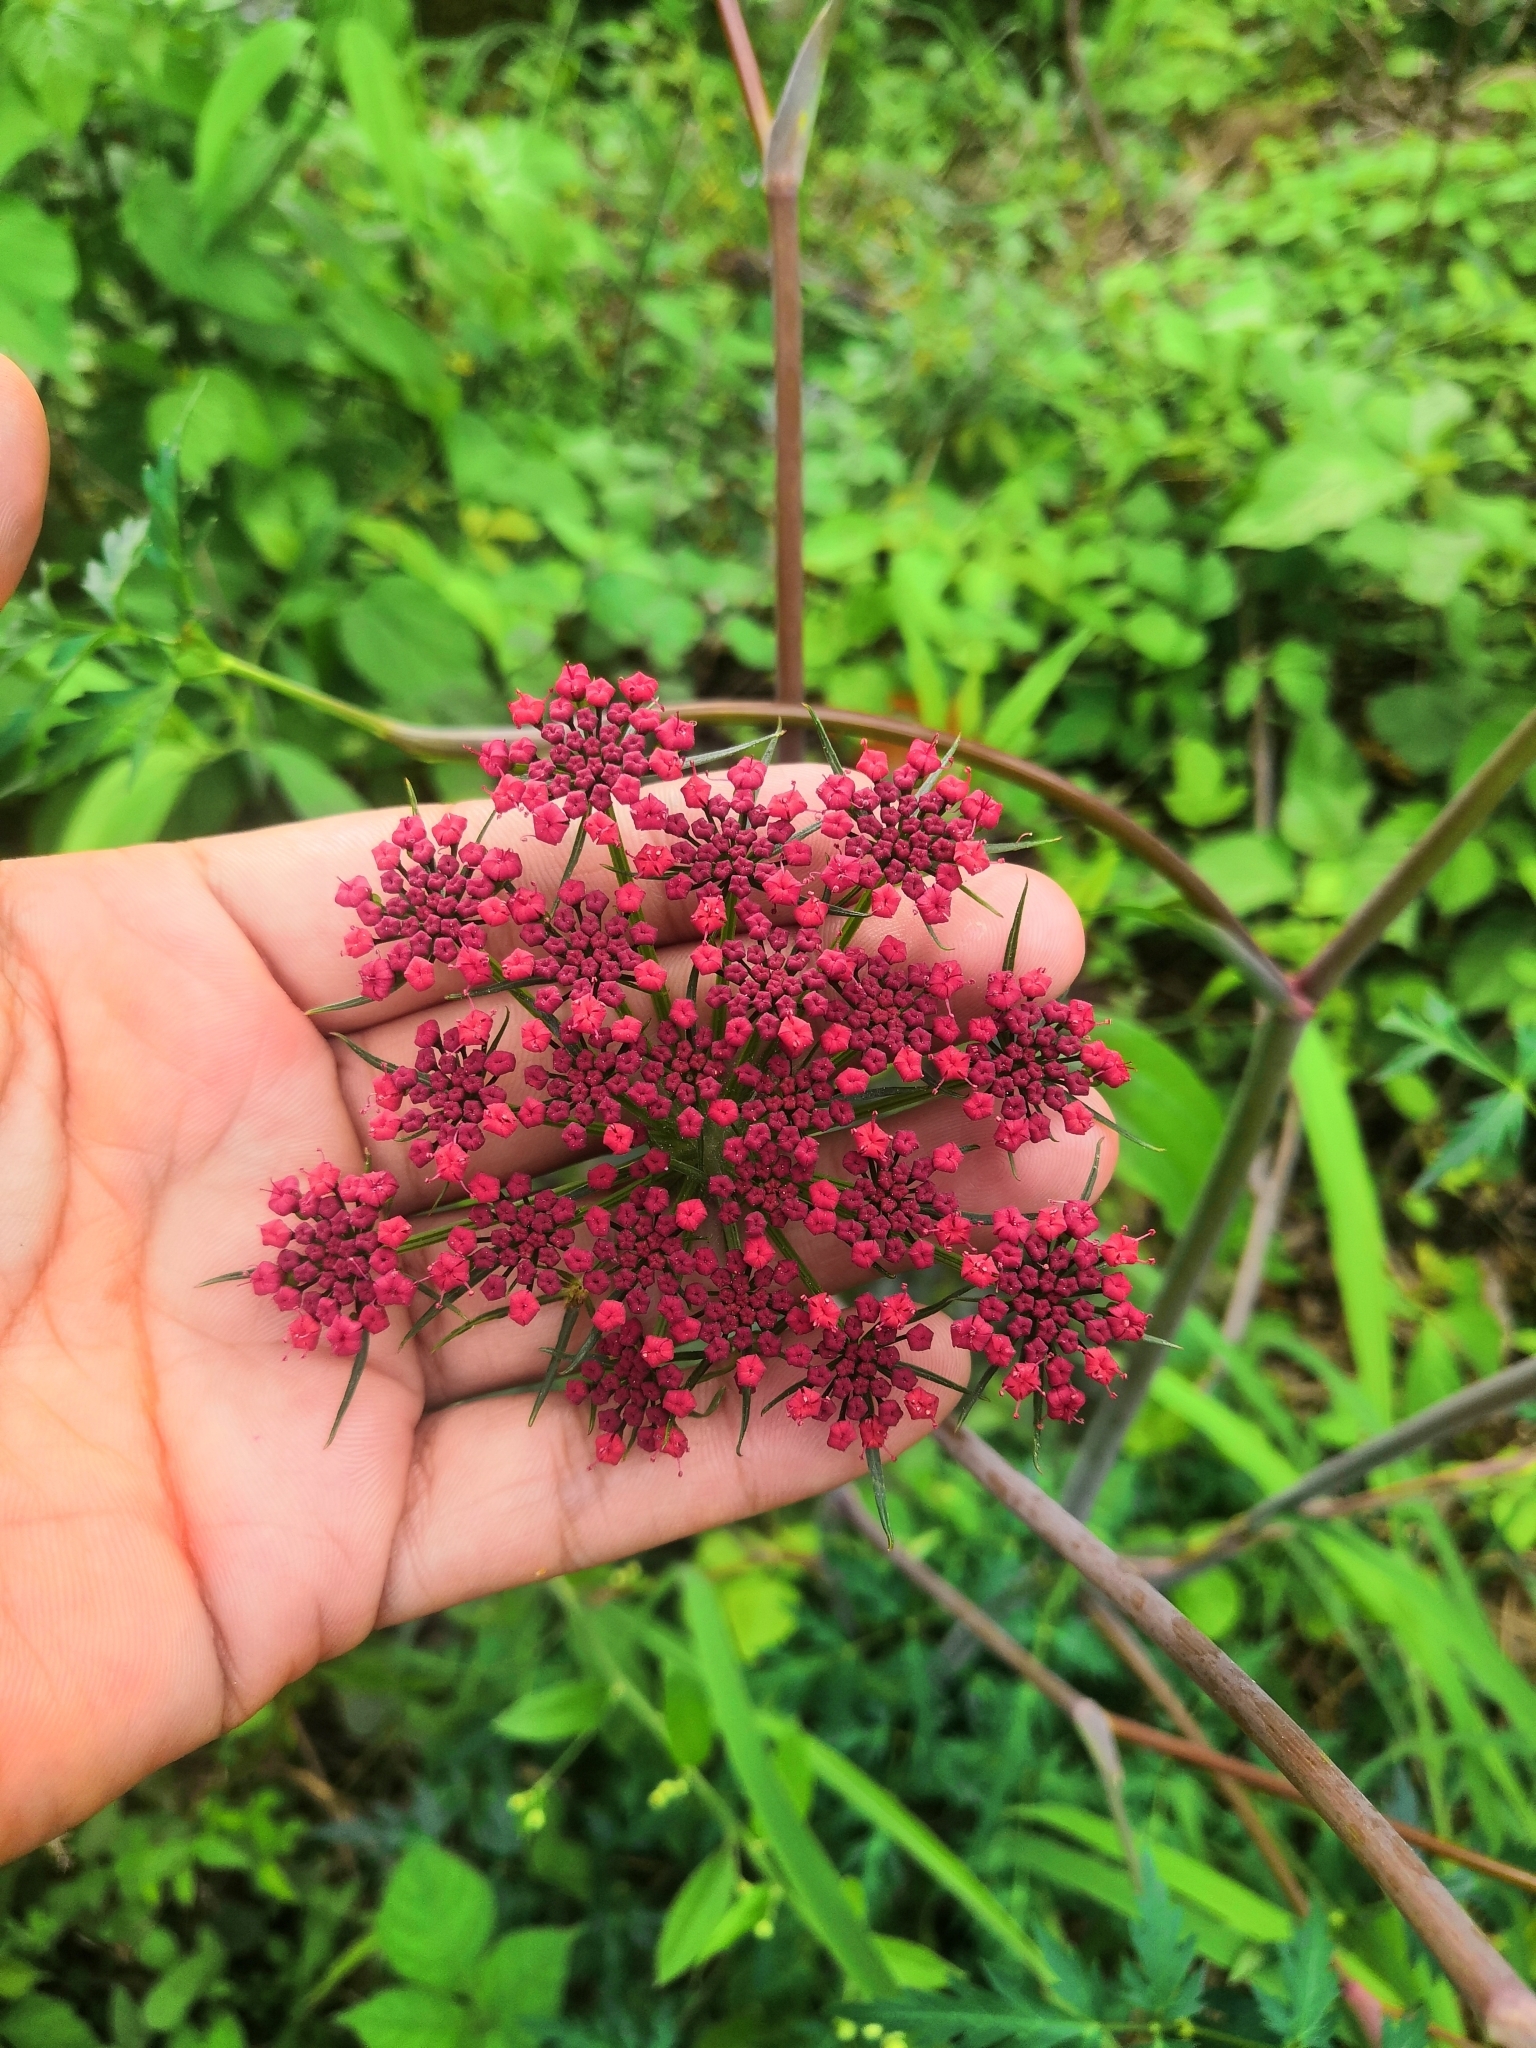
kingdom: Plantae
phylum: Tracheophyta
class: Magnoliopsida
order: Apiales
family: Apiaceae
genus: Prionosciadium
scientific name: Prionosciadium guzmanianum
